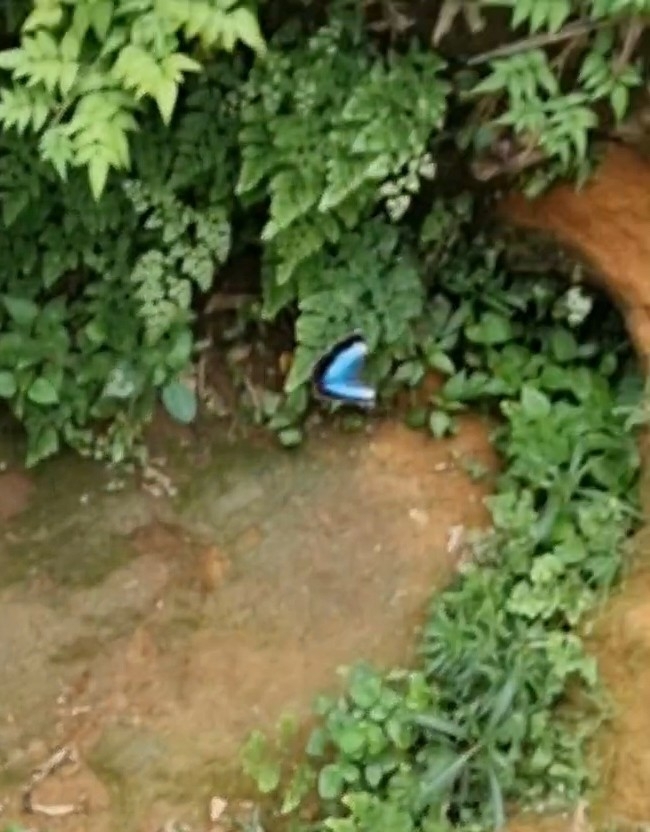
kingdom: Animalia
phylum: Arthropoda
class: Insecta
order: Lepidoptera
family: Nymphalidae
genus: Morpho
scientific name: Morpho helenor
